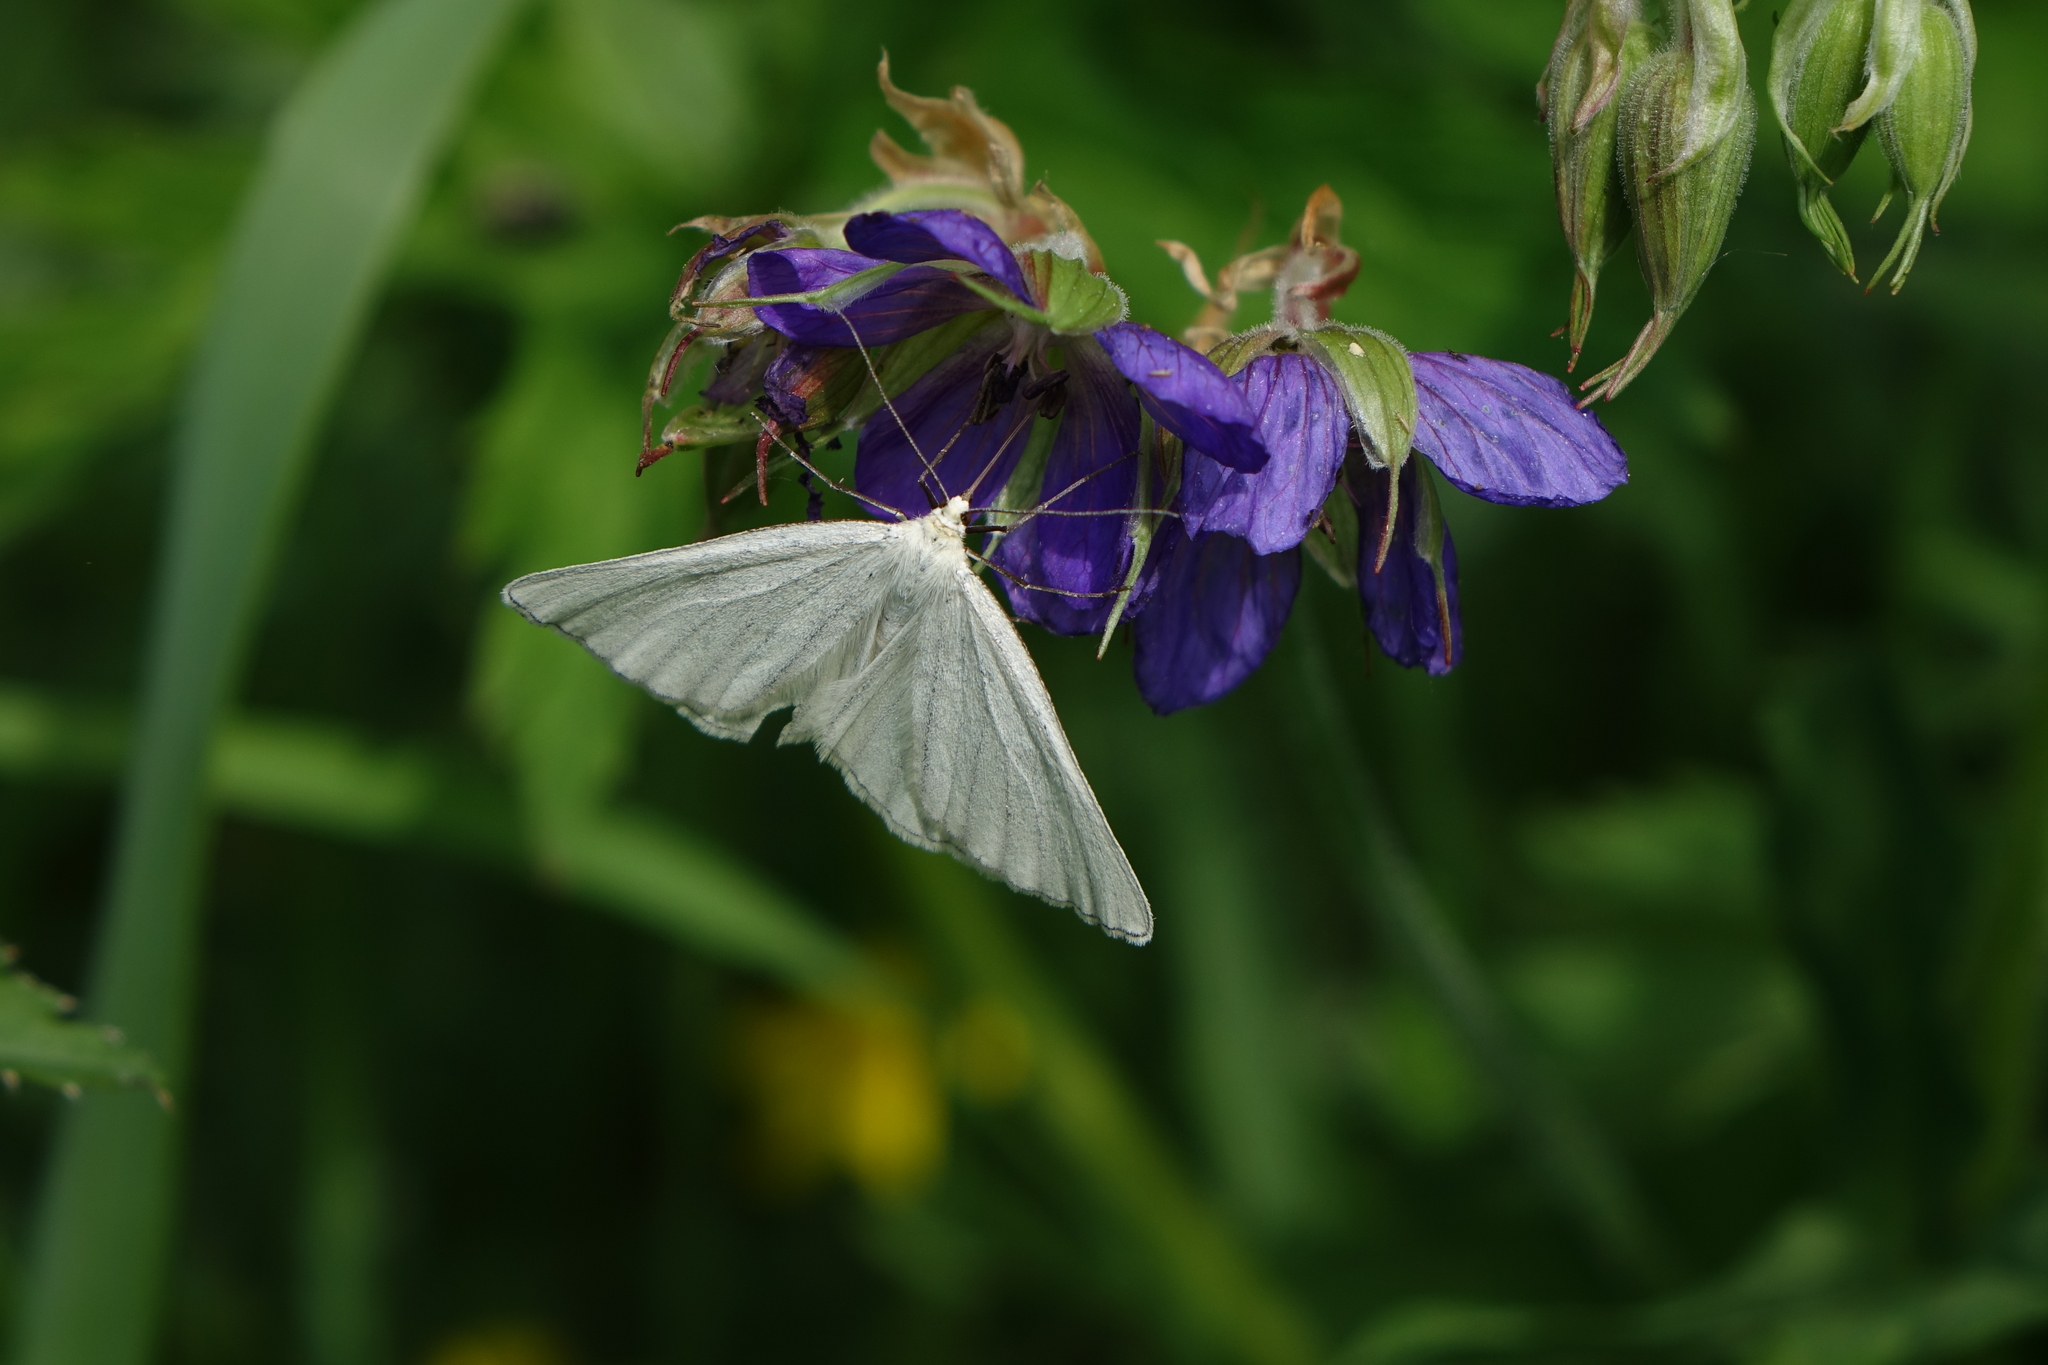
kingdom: Plantae
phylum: Tracheophyta
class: Magnoliopsida
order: Geraniales
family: Geraniaceae
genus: Geranium
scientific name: Geranium pratense
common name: Meadow crane's-bill
